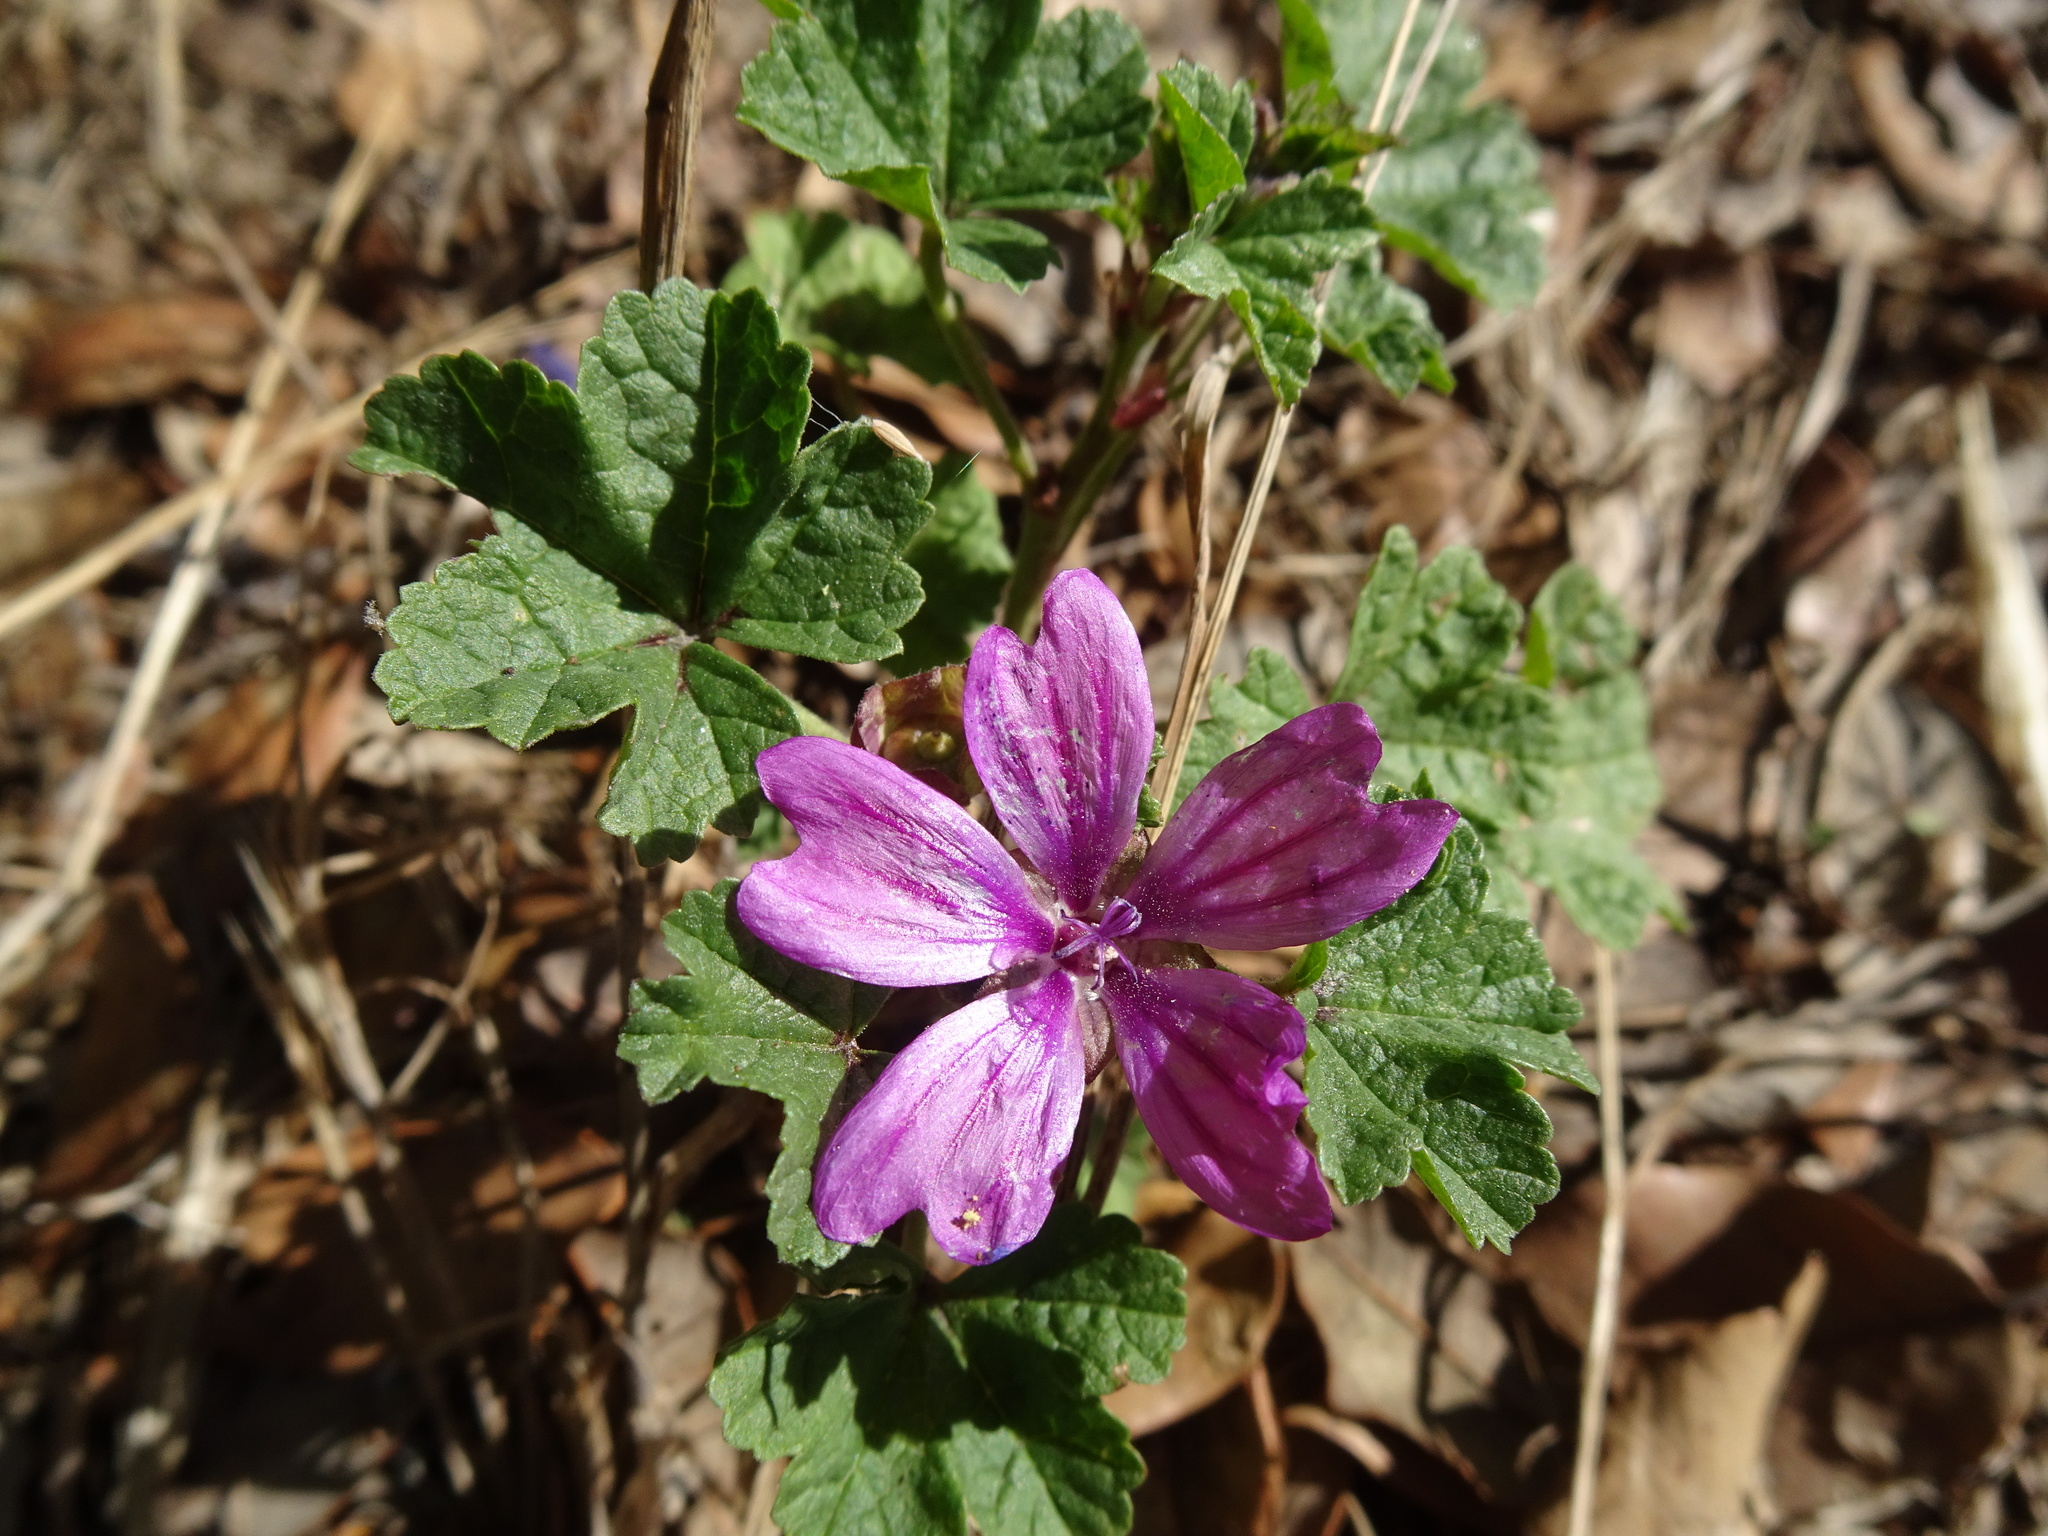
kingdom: Plantae
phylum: Tracheophyta
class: Magnoliopsida
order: Malvales
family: Malvaceae
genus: Malva
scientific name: Malva sylvestris
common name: Common mallow
